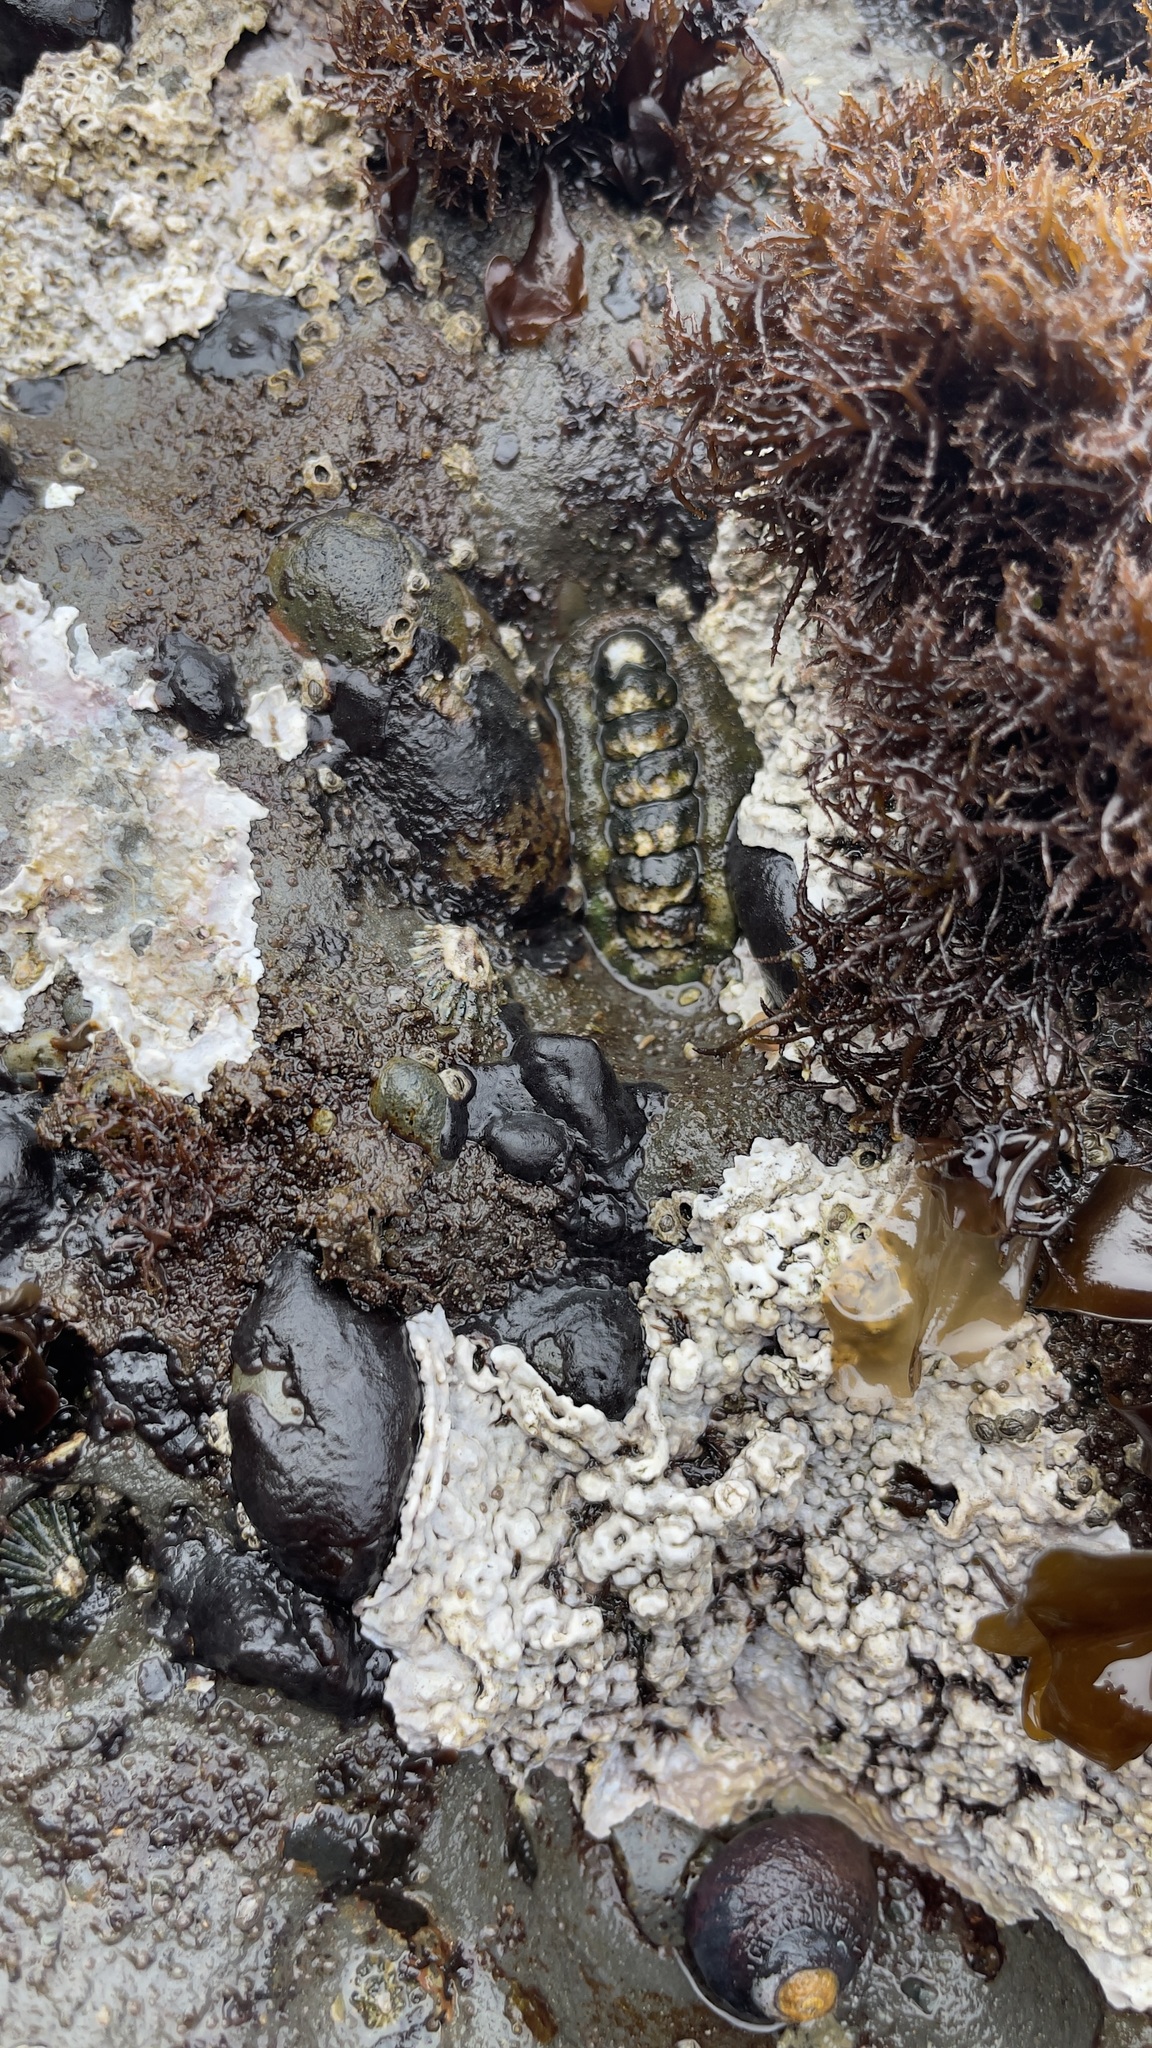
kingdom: Animalia
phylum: Mollusca
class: Polyplacophora
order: Chitonida
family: Tonicellidae
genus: Nuttallina
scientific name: Nuttallina californica
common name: California nuttall chiton
